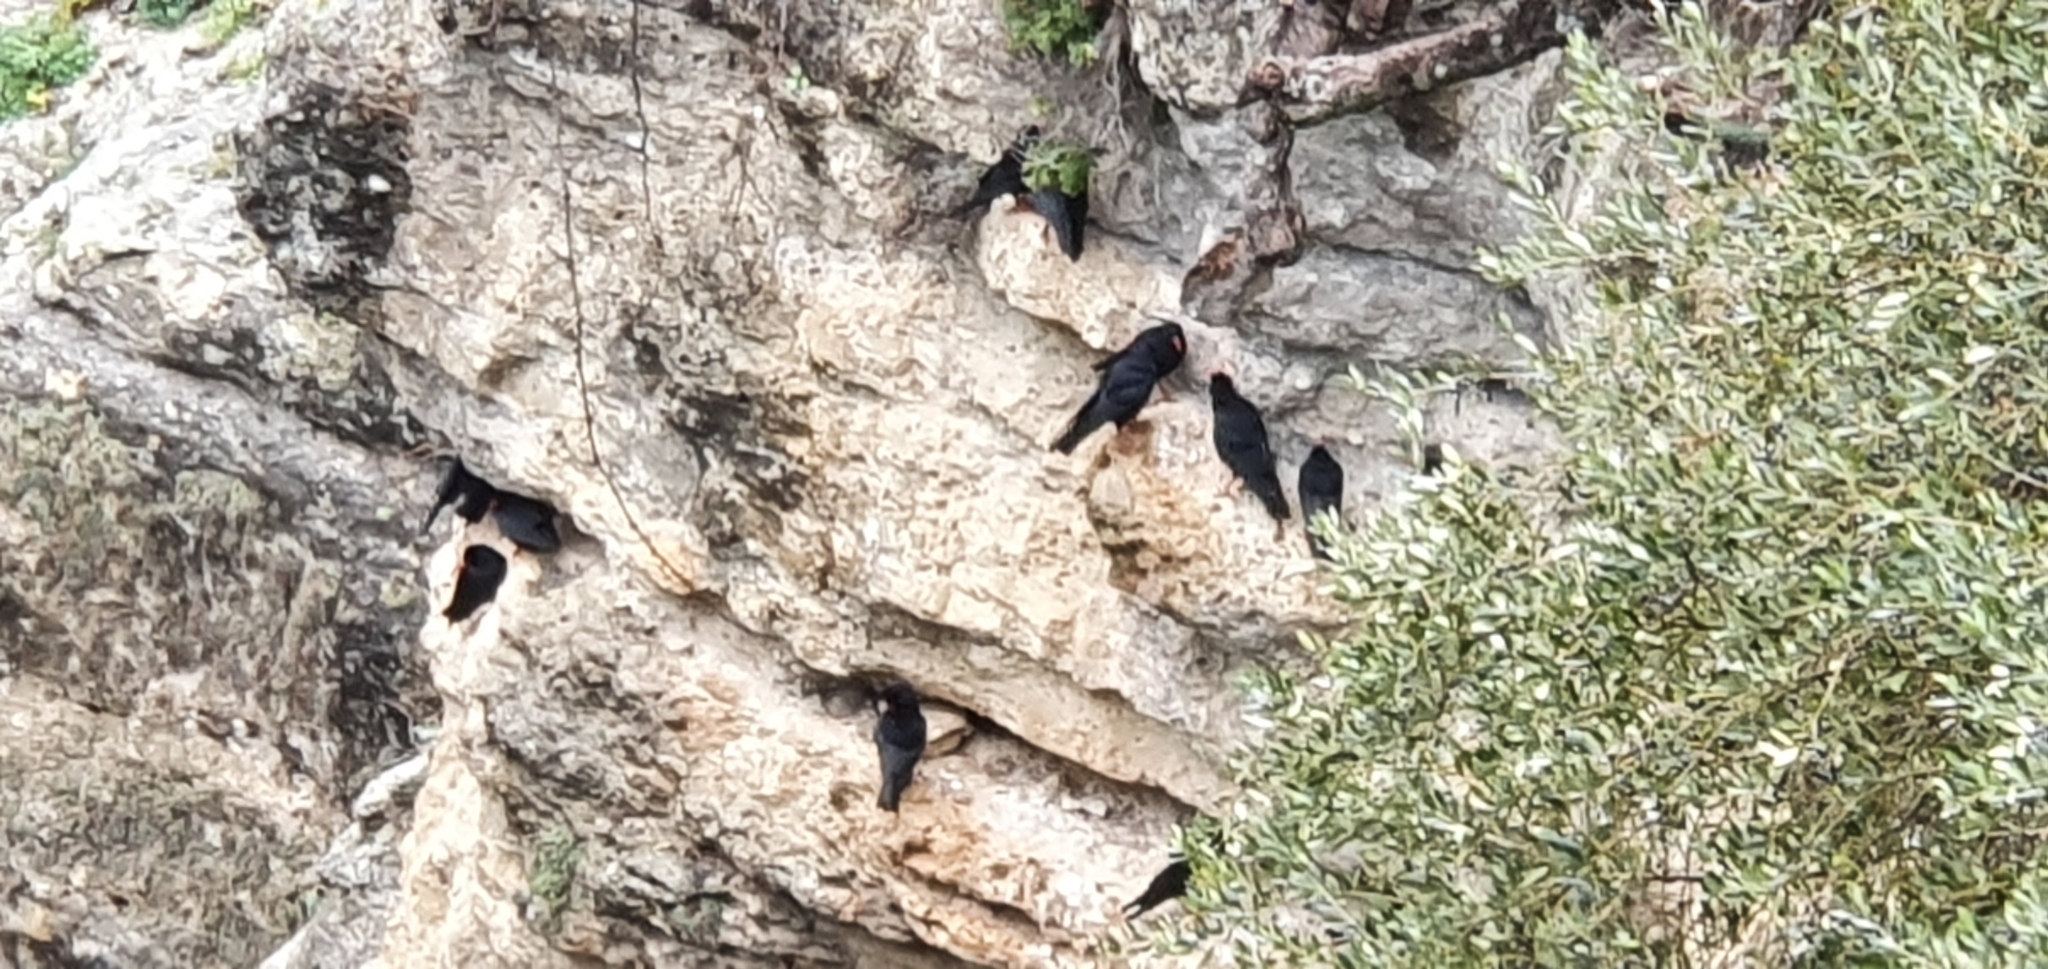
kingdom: Animalia
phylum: Chordata
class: Aves
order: Passeriformes
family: Corvidae
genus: Pyrrhocorax
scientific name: Pyrrhocorax pyrrhocorax
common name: Red-billed chough
